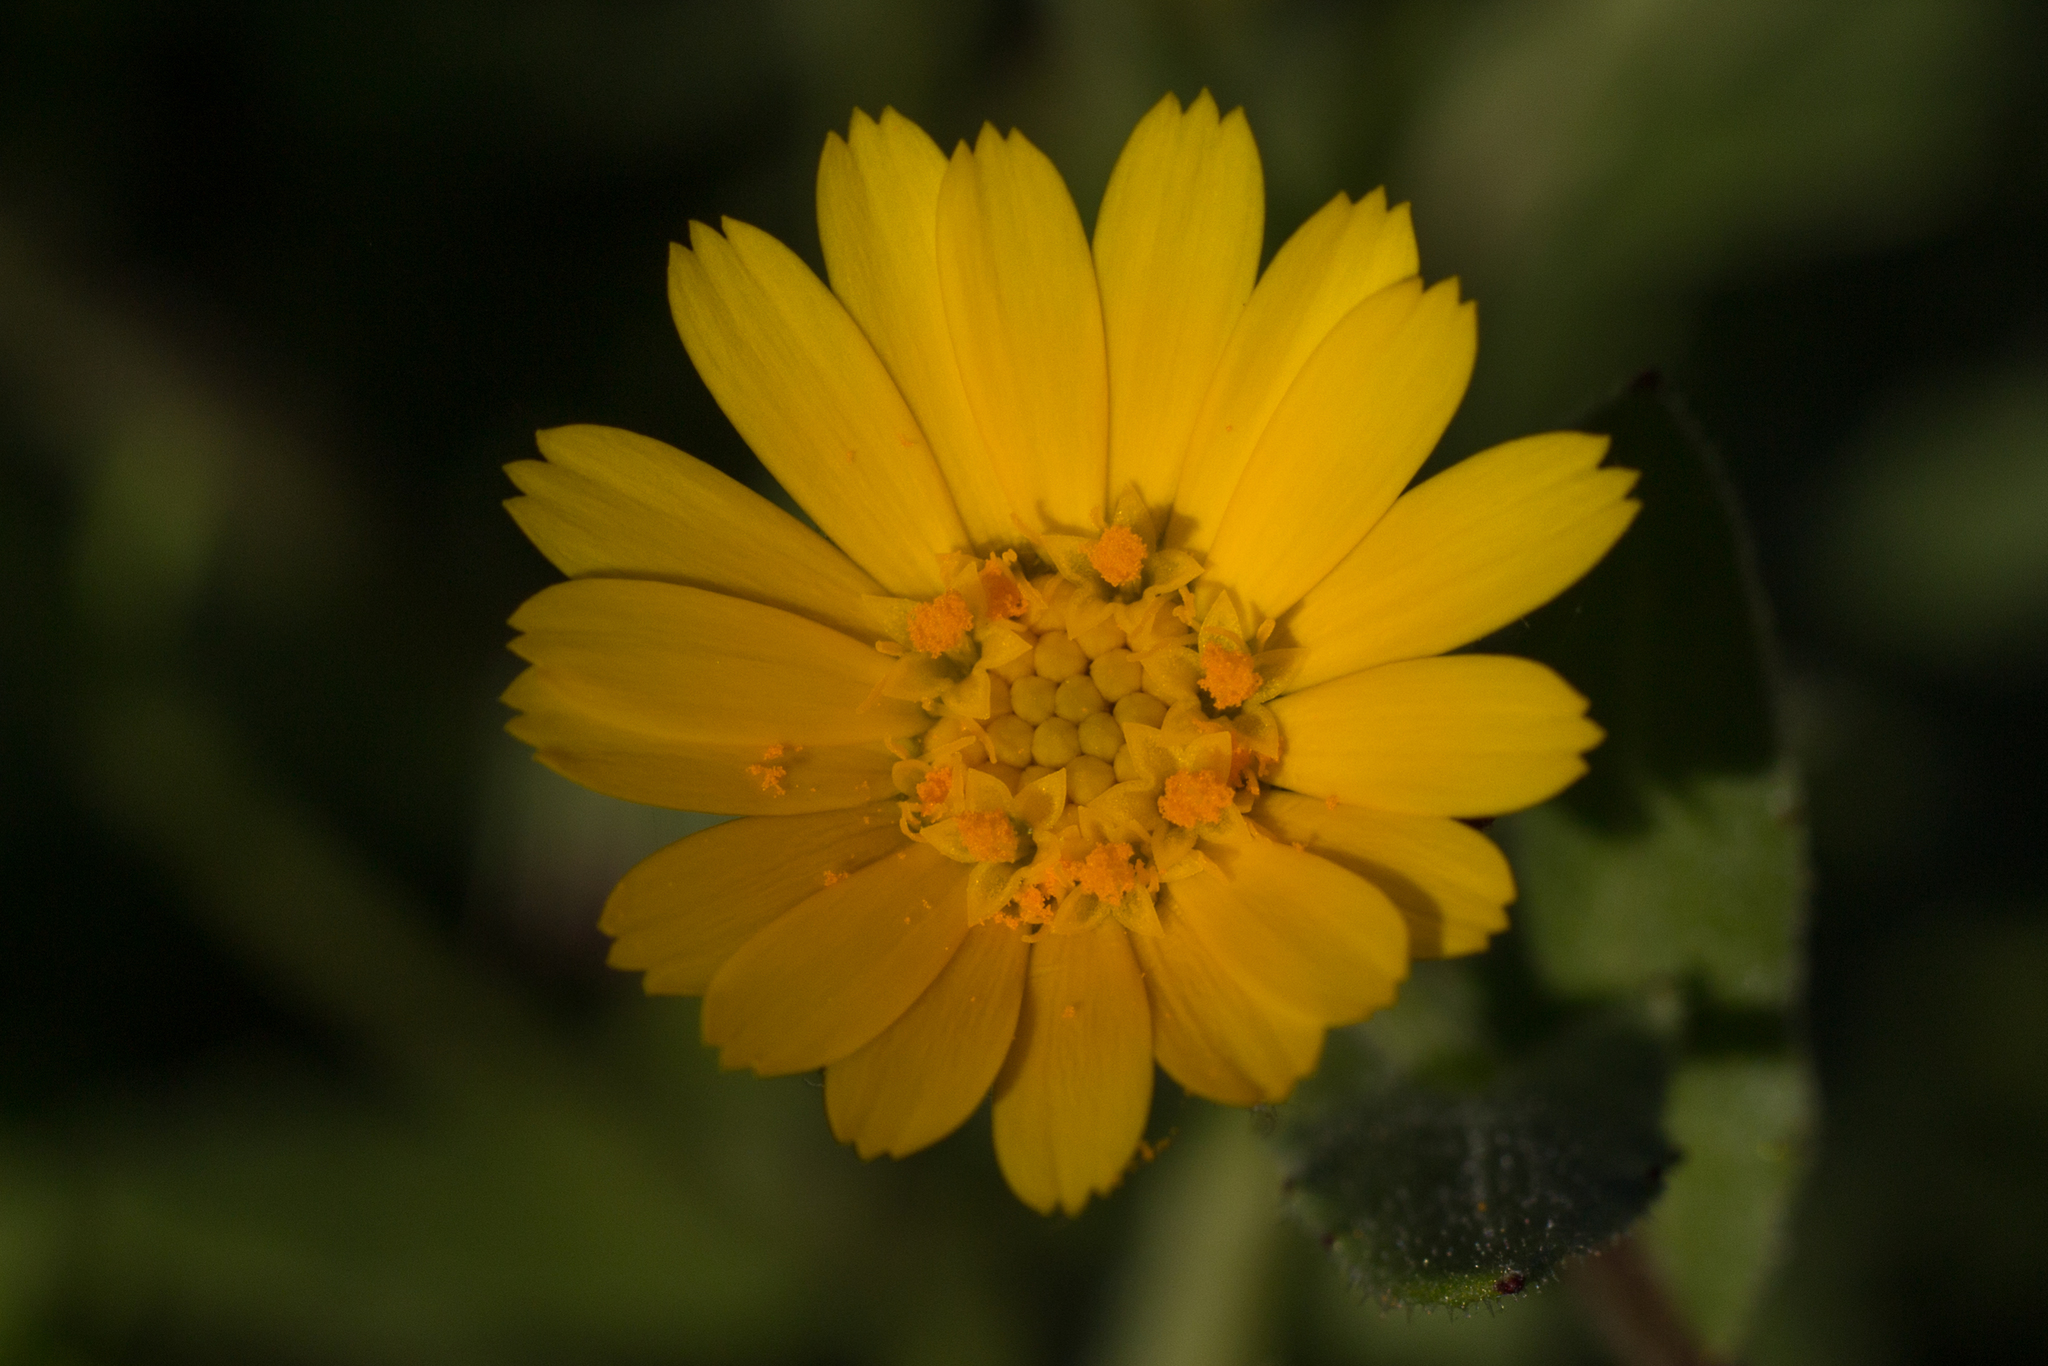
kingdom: Plantae
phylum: Tracheophyta
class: Magnoliopsida
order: Asterales
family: Asteraceae
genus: Calendula
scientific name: Calendula arvensis
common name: Field marigold
